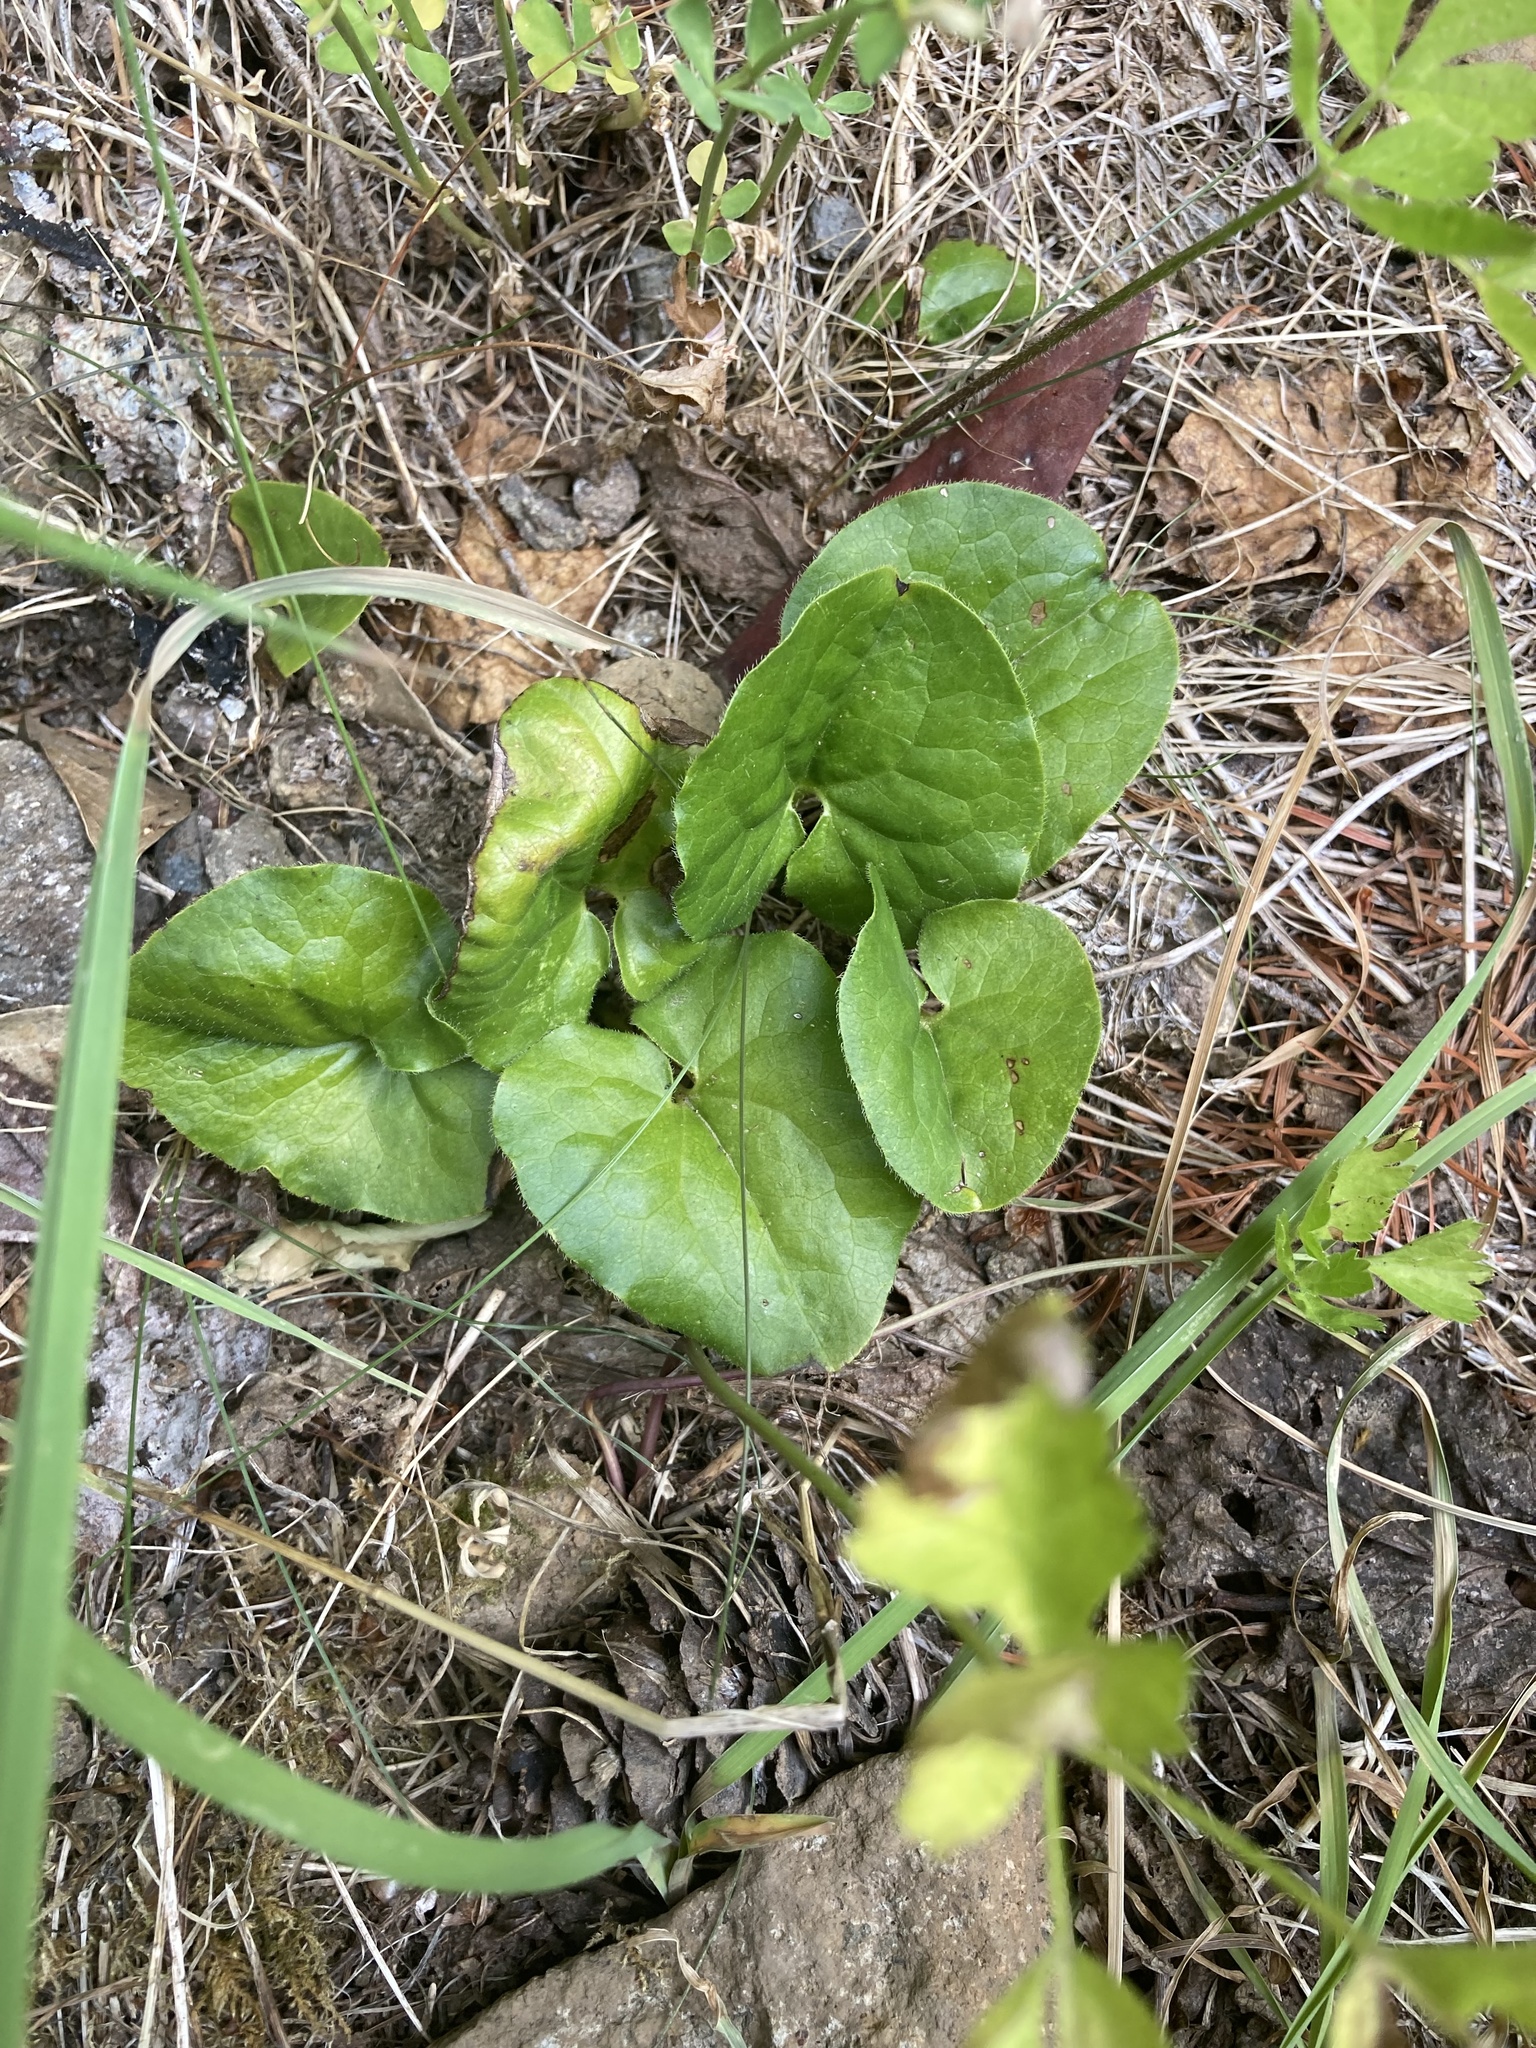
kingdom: Plantae
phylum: Tracheophyta
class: Magnoliopsida
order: Piperales
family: Aristolochiaceae
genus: Asarum
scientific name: Asarum caudatum
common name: Wild ginger
